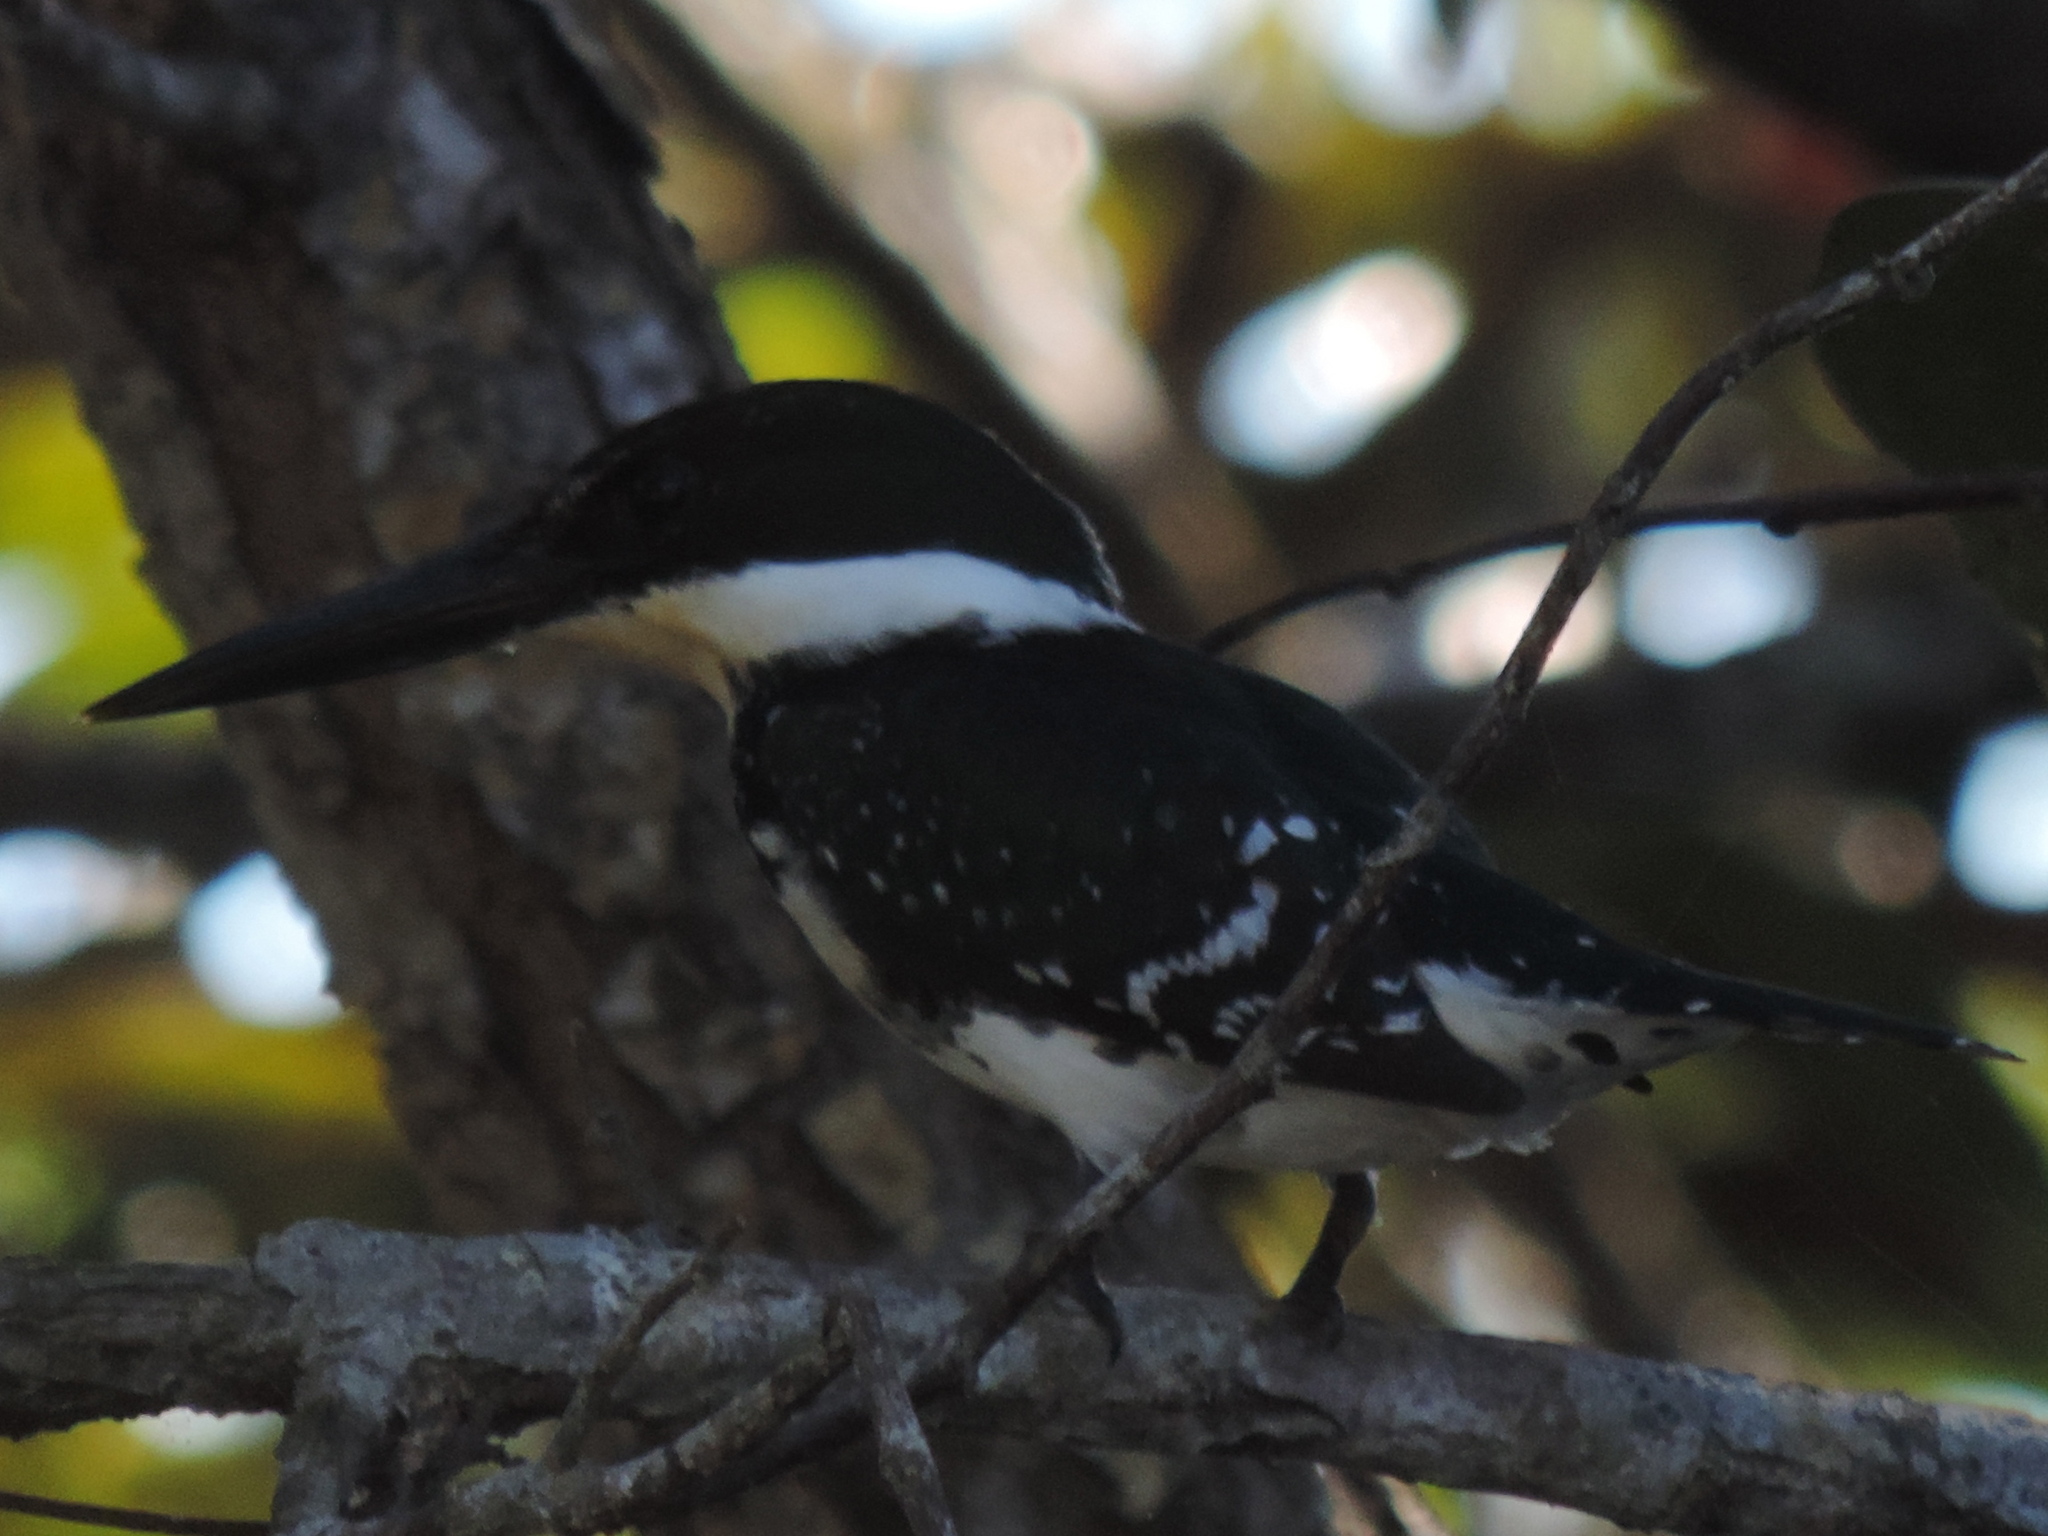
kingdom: Animalia
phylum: Chordata
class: Aves
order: Coraciiformes
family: Alcedinidae
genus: Chloroceryle
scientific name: Chloroceryle americana
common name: Green kingfisher
